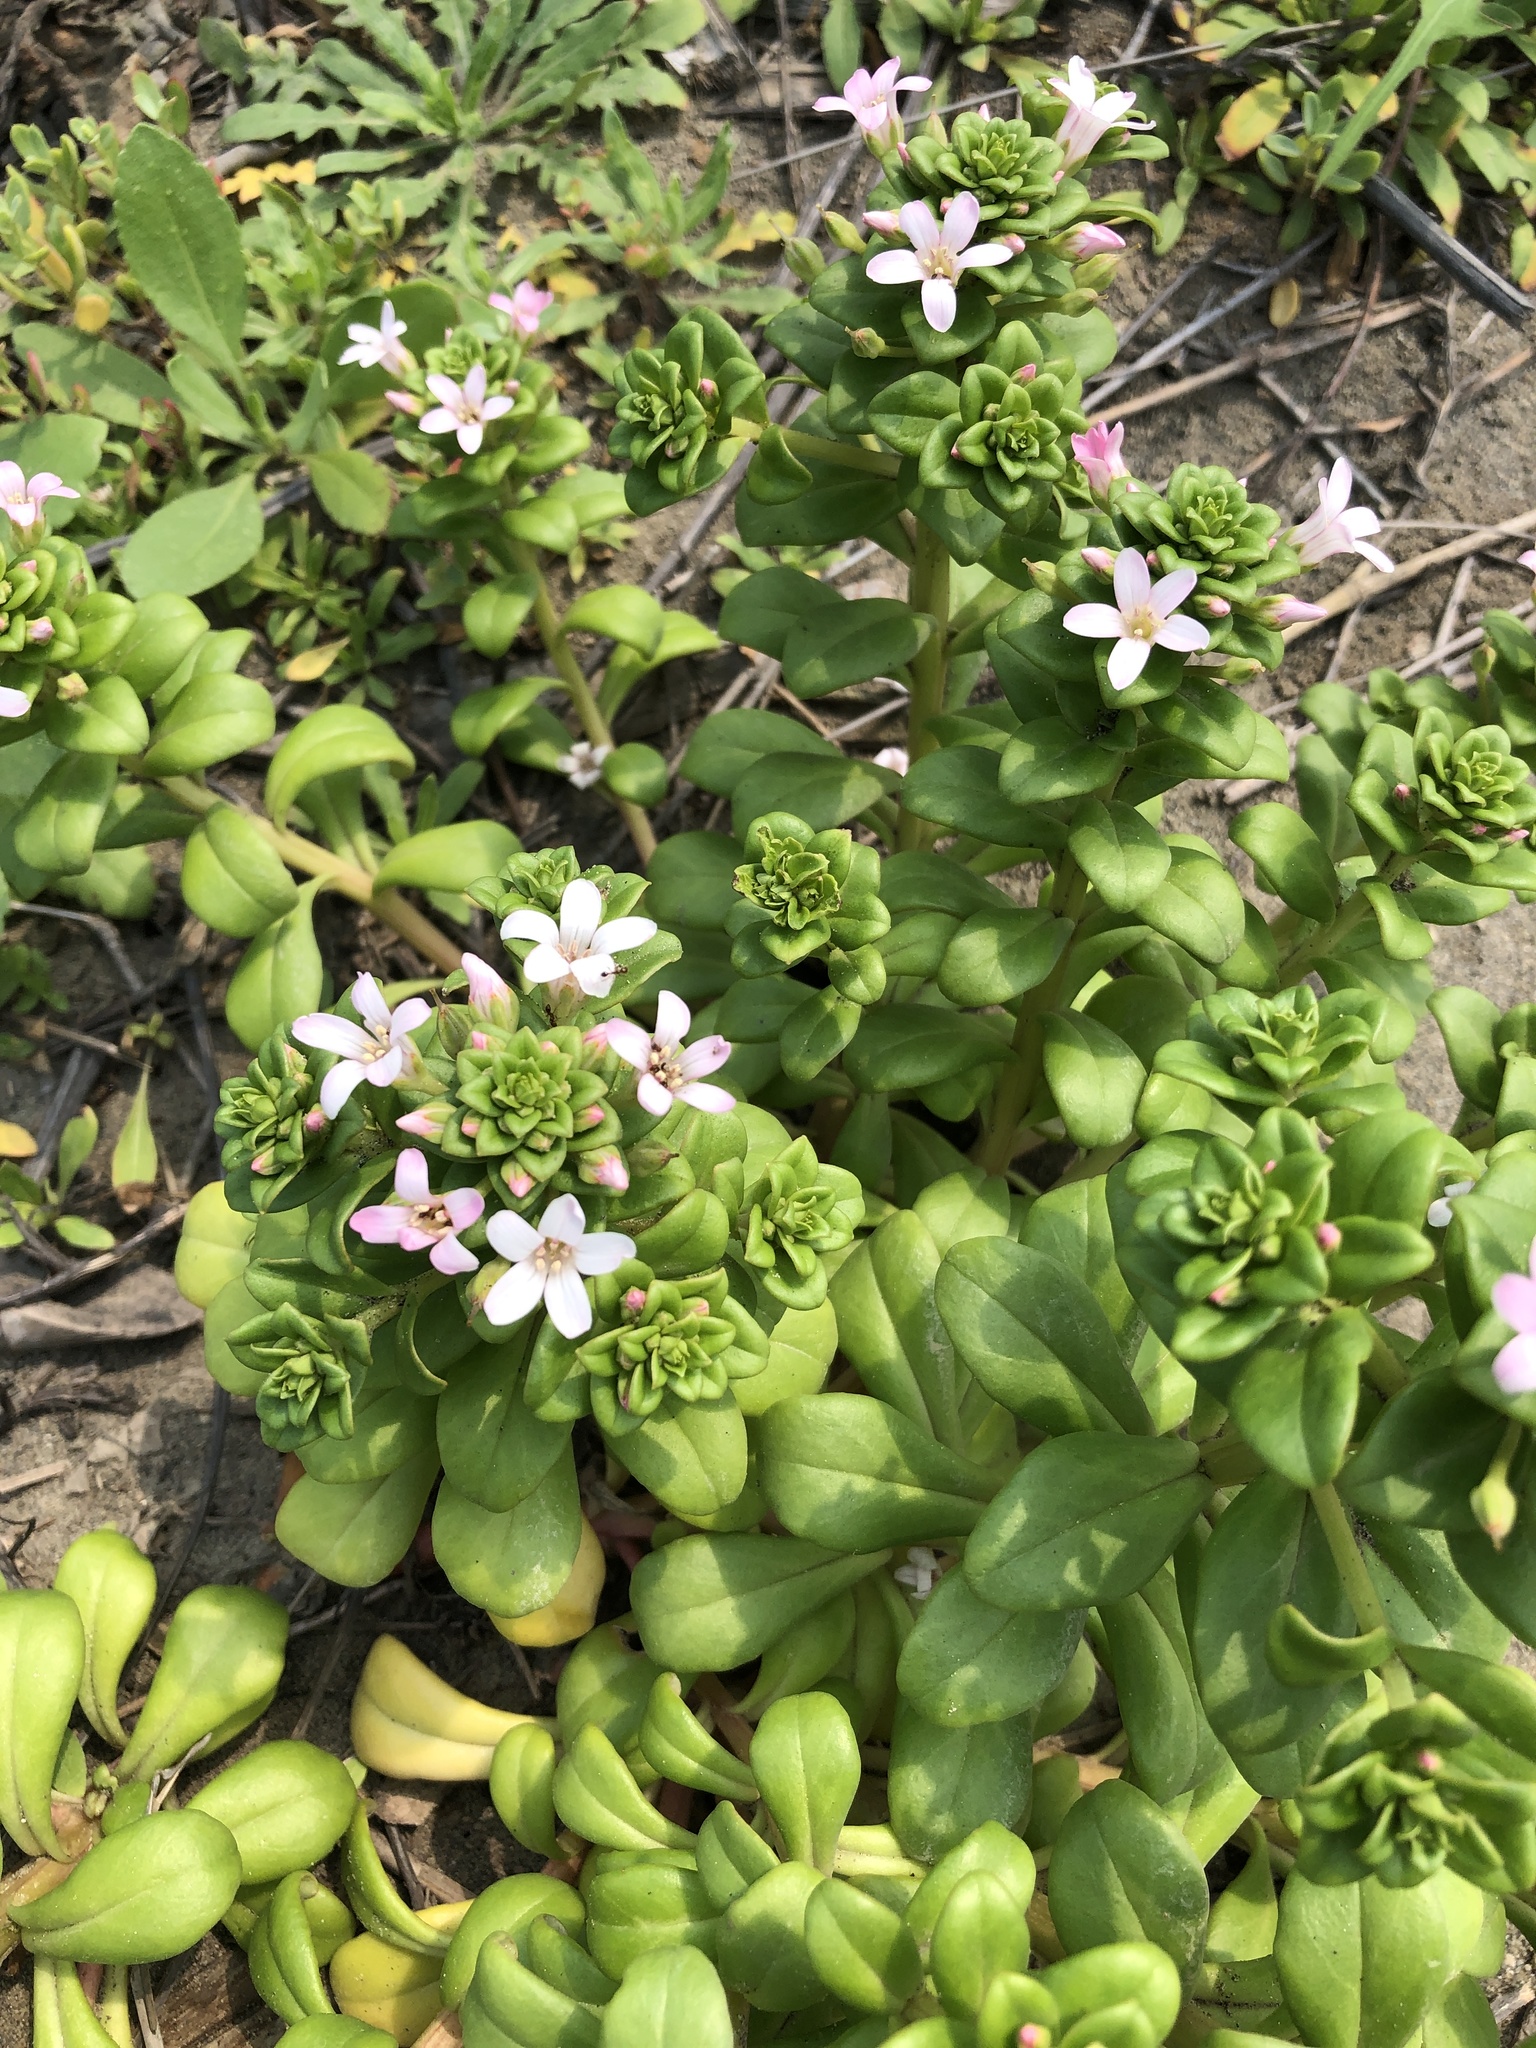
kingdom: Plantae
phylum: Tracheophyta
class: Magnoliopsida
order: Ericales
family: Primulaceae
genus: Lysimachia
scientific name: Lysimachia mauritiana
